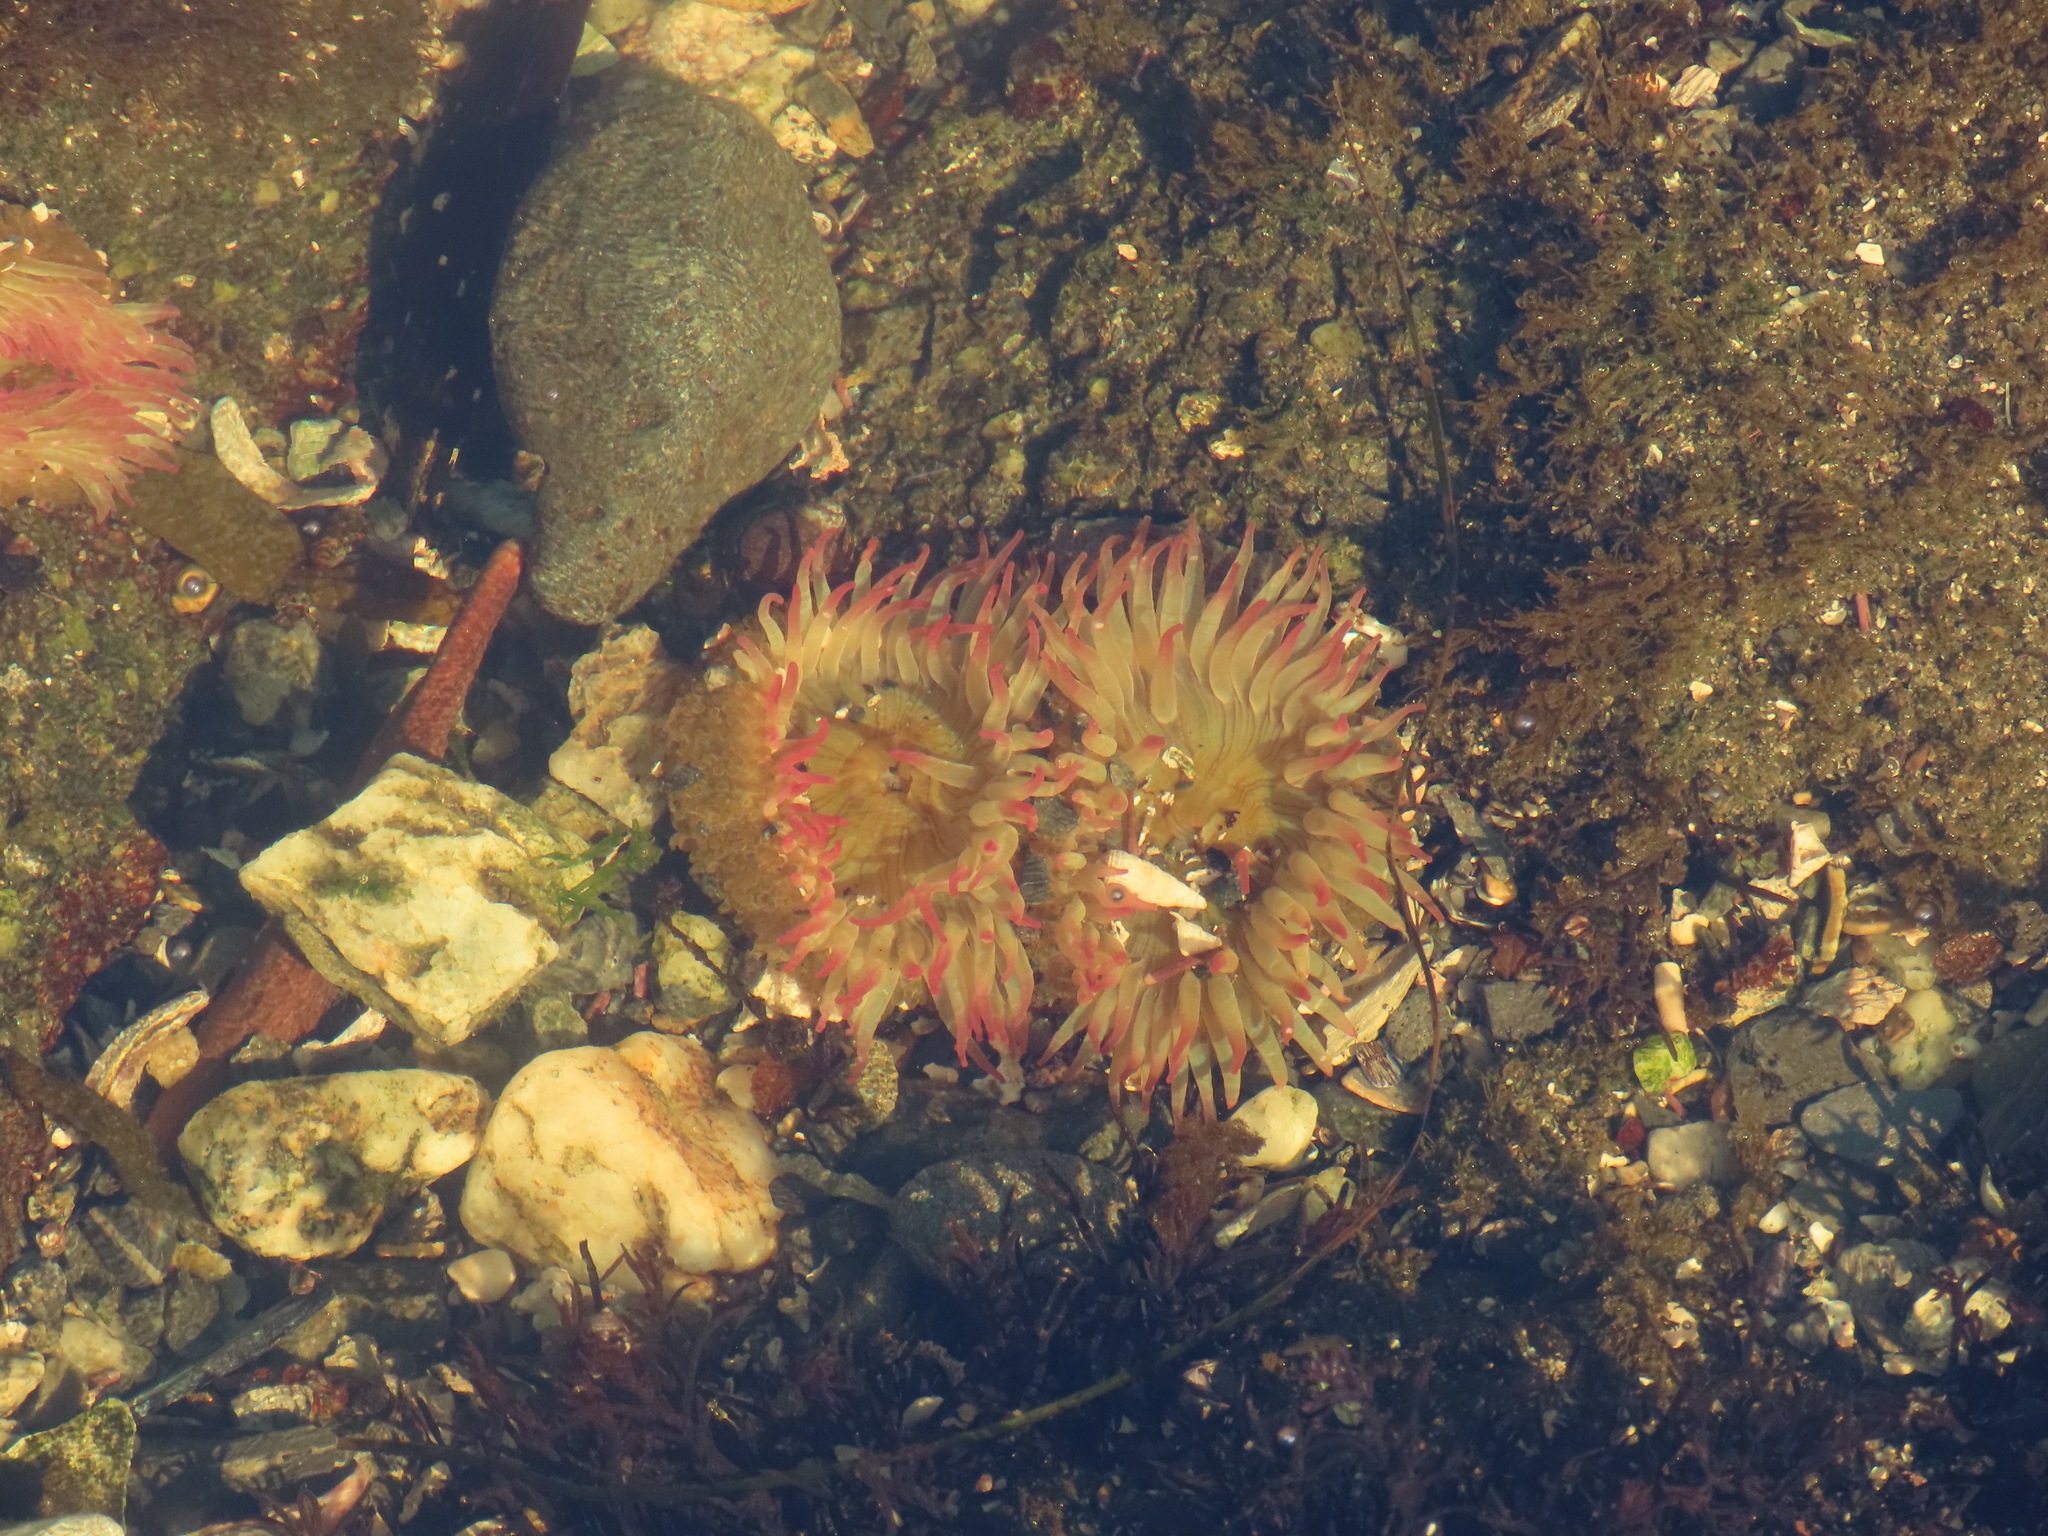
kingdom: Animalia
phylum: Cnidaria
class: Anthozoa
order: Actiniaria
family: Actiniidae
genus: Anthopleura
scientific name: Anthopleura elegantissima
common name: Clonal anemone
